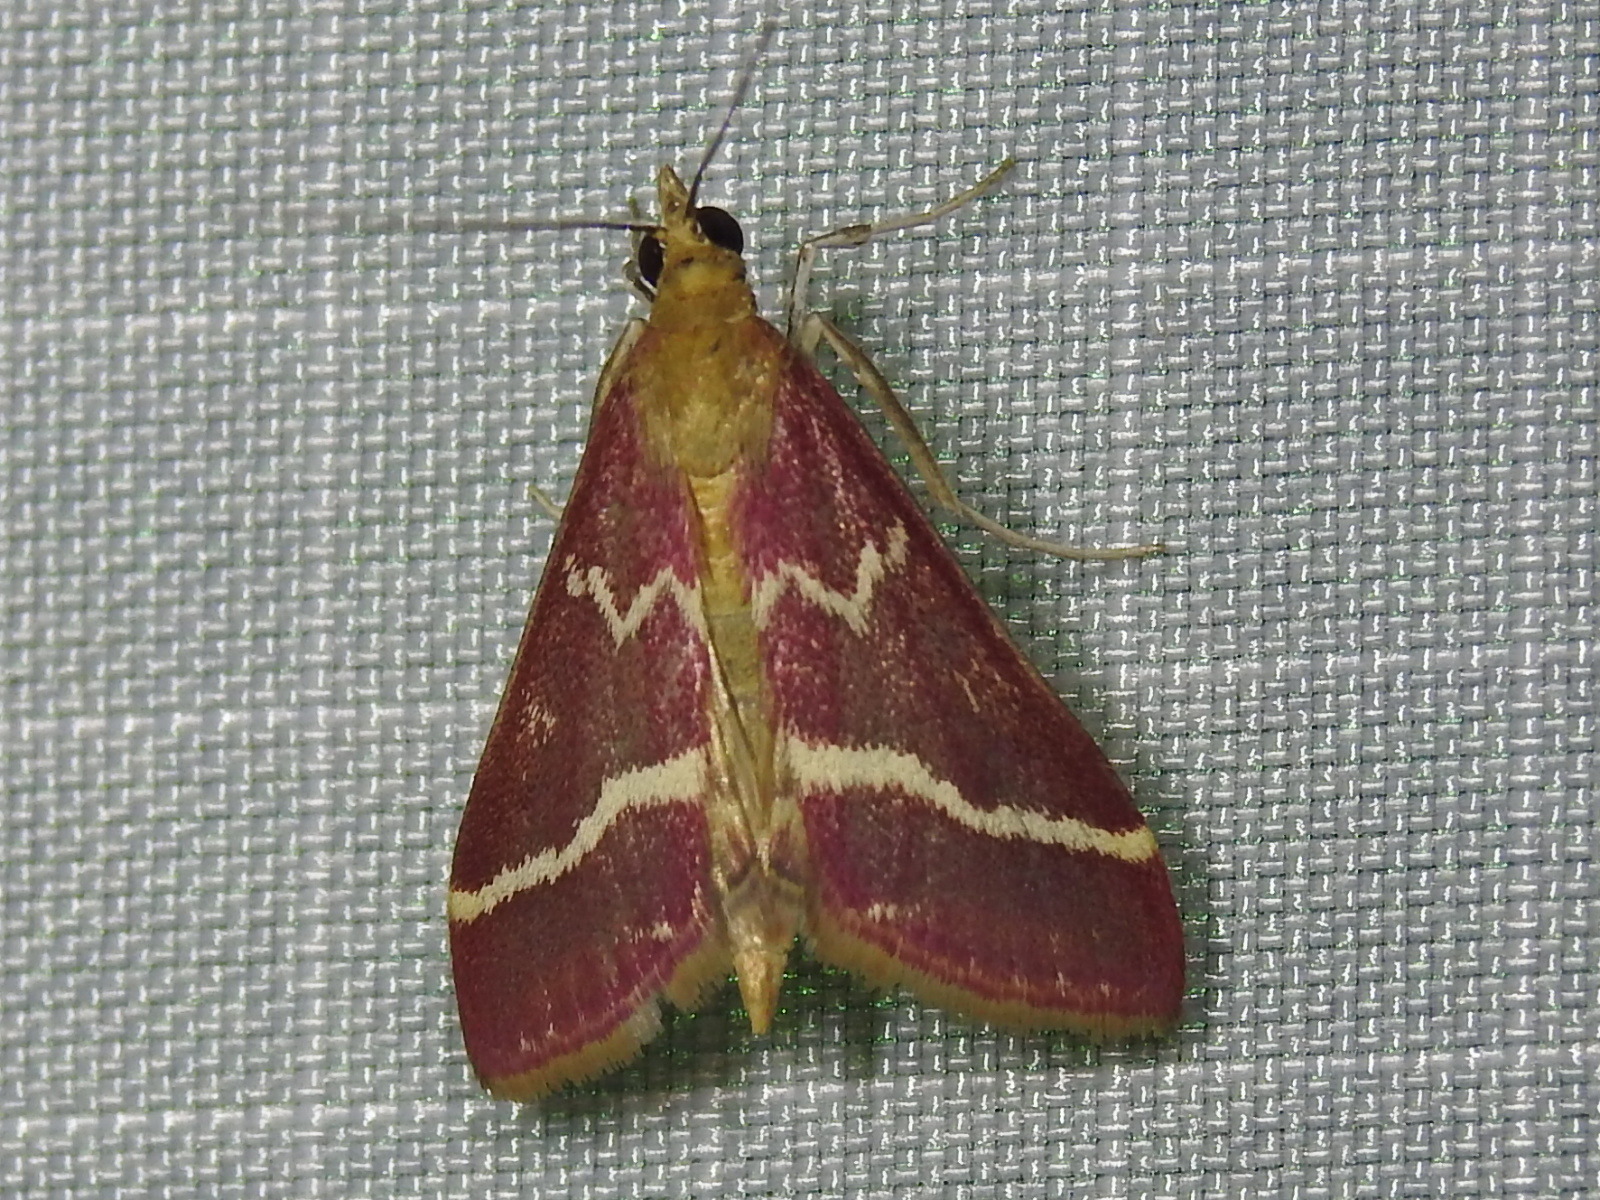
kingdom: Animalia
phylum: Arthropoda
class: Insecta
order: Lepidoptera
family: Crambidae
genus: Pyrausta
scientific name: Pyrausta volupialis
